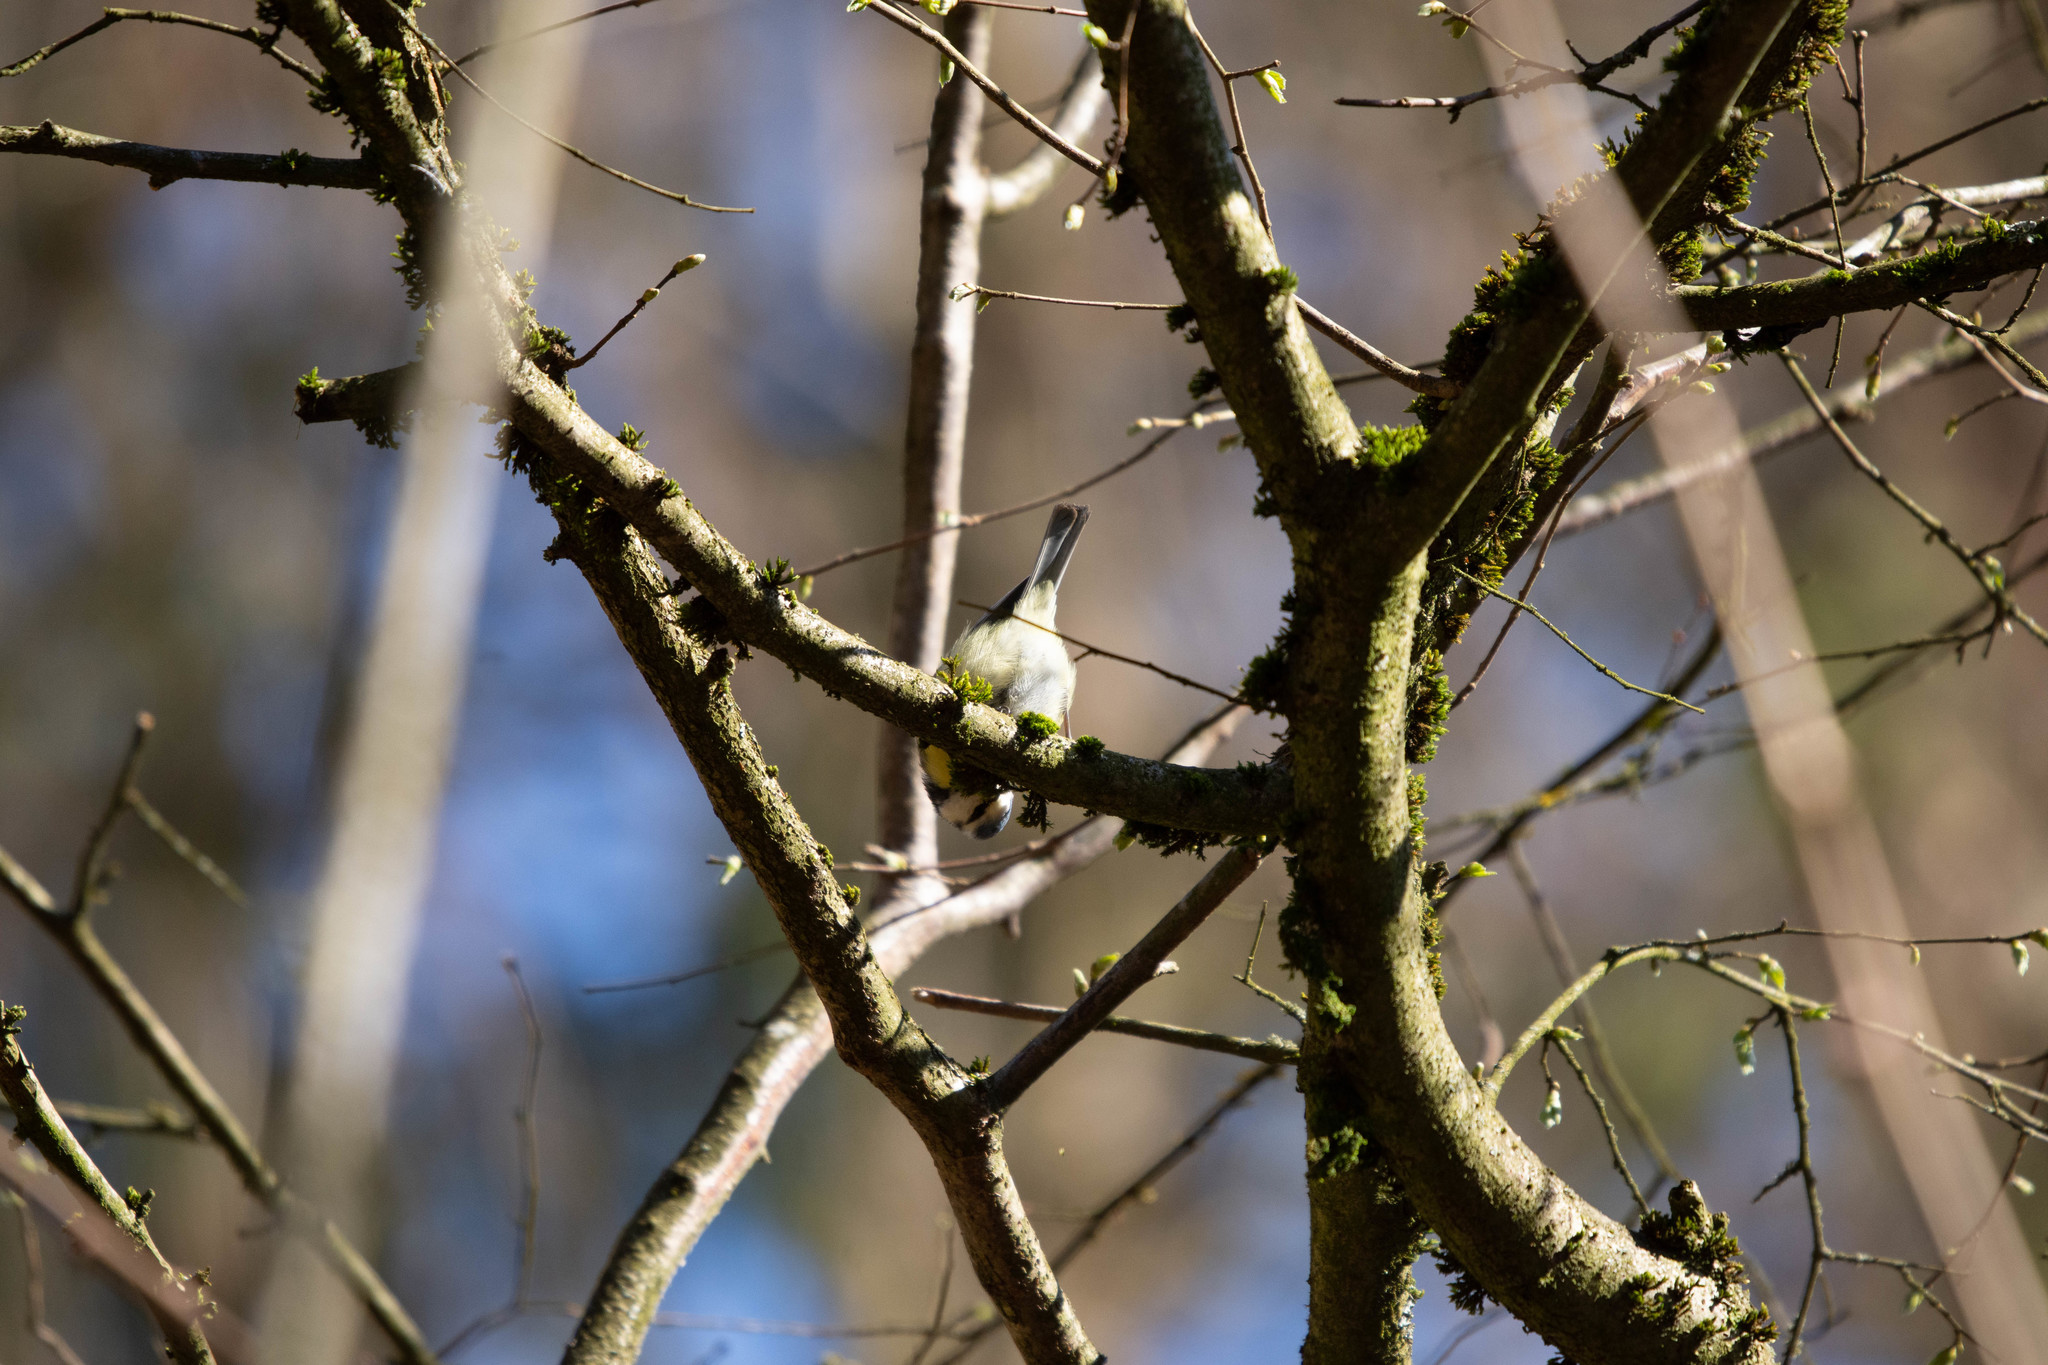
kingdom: Animalia
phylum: Chordata
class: Aves
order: Passeriformes
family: Paridae
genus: Cyanistes
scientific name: Cyanistes caeruleus
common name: Eurasian blue tit
